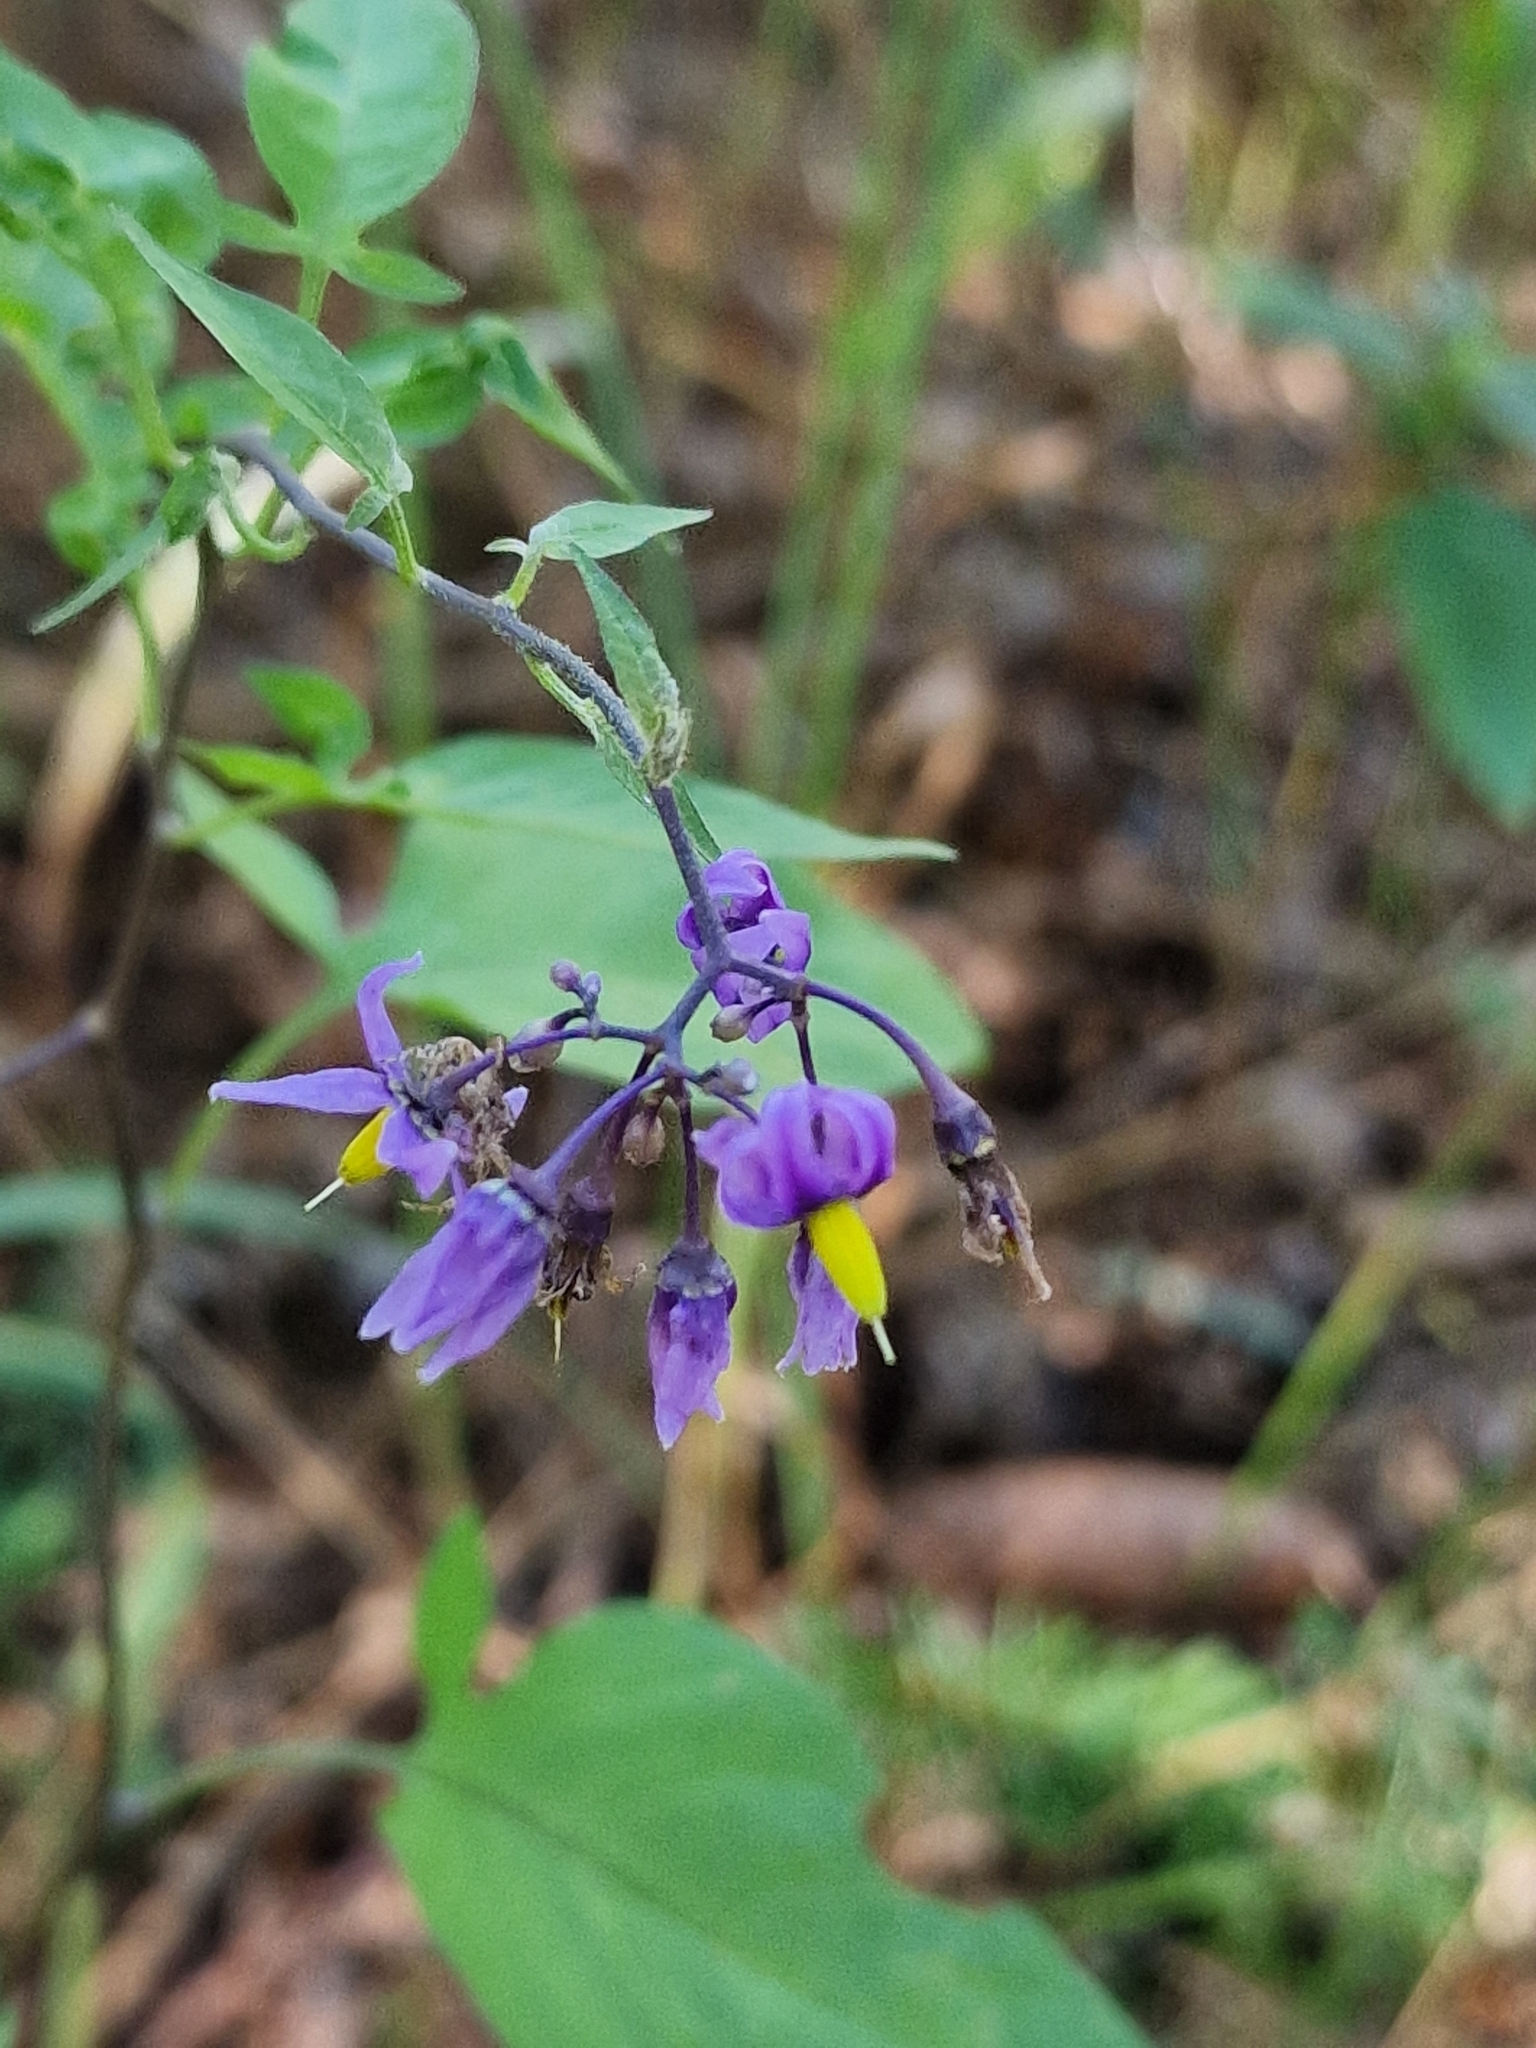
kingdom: Plantae
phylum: Tracheophyta
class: Magnoliopsida
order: Solanales
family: Solanaceae
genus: Solanum
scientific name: Solanum dulcamara
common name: Climbing nightshade
